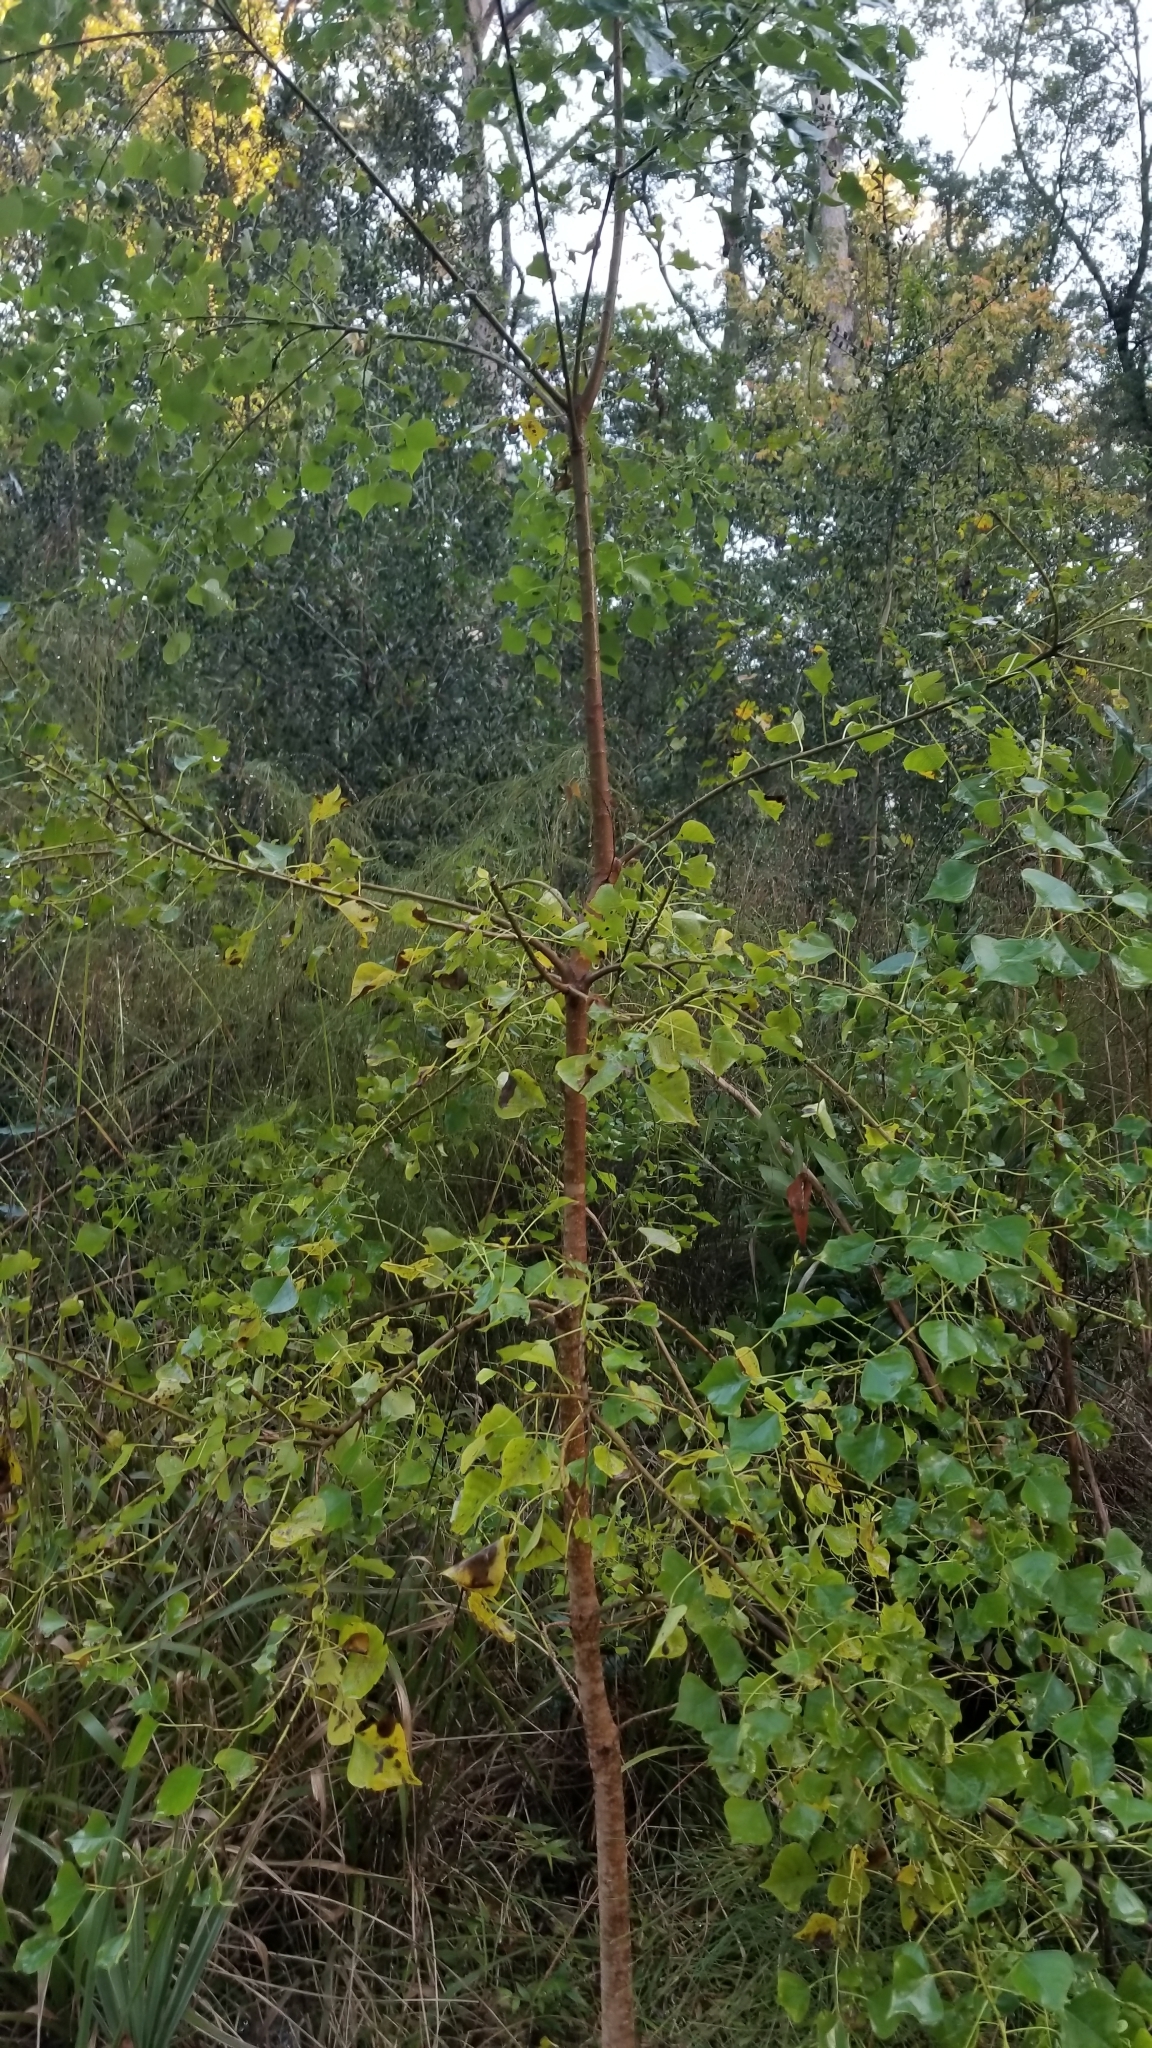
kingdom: Plantae
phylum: Tracheophyta
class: Magnoliopsida
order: Malpighiales
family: Euphorbiaceae
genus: Triadica
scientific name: Triadica sebifera
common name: Chinese tallow
